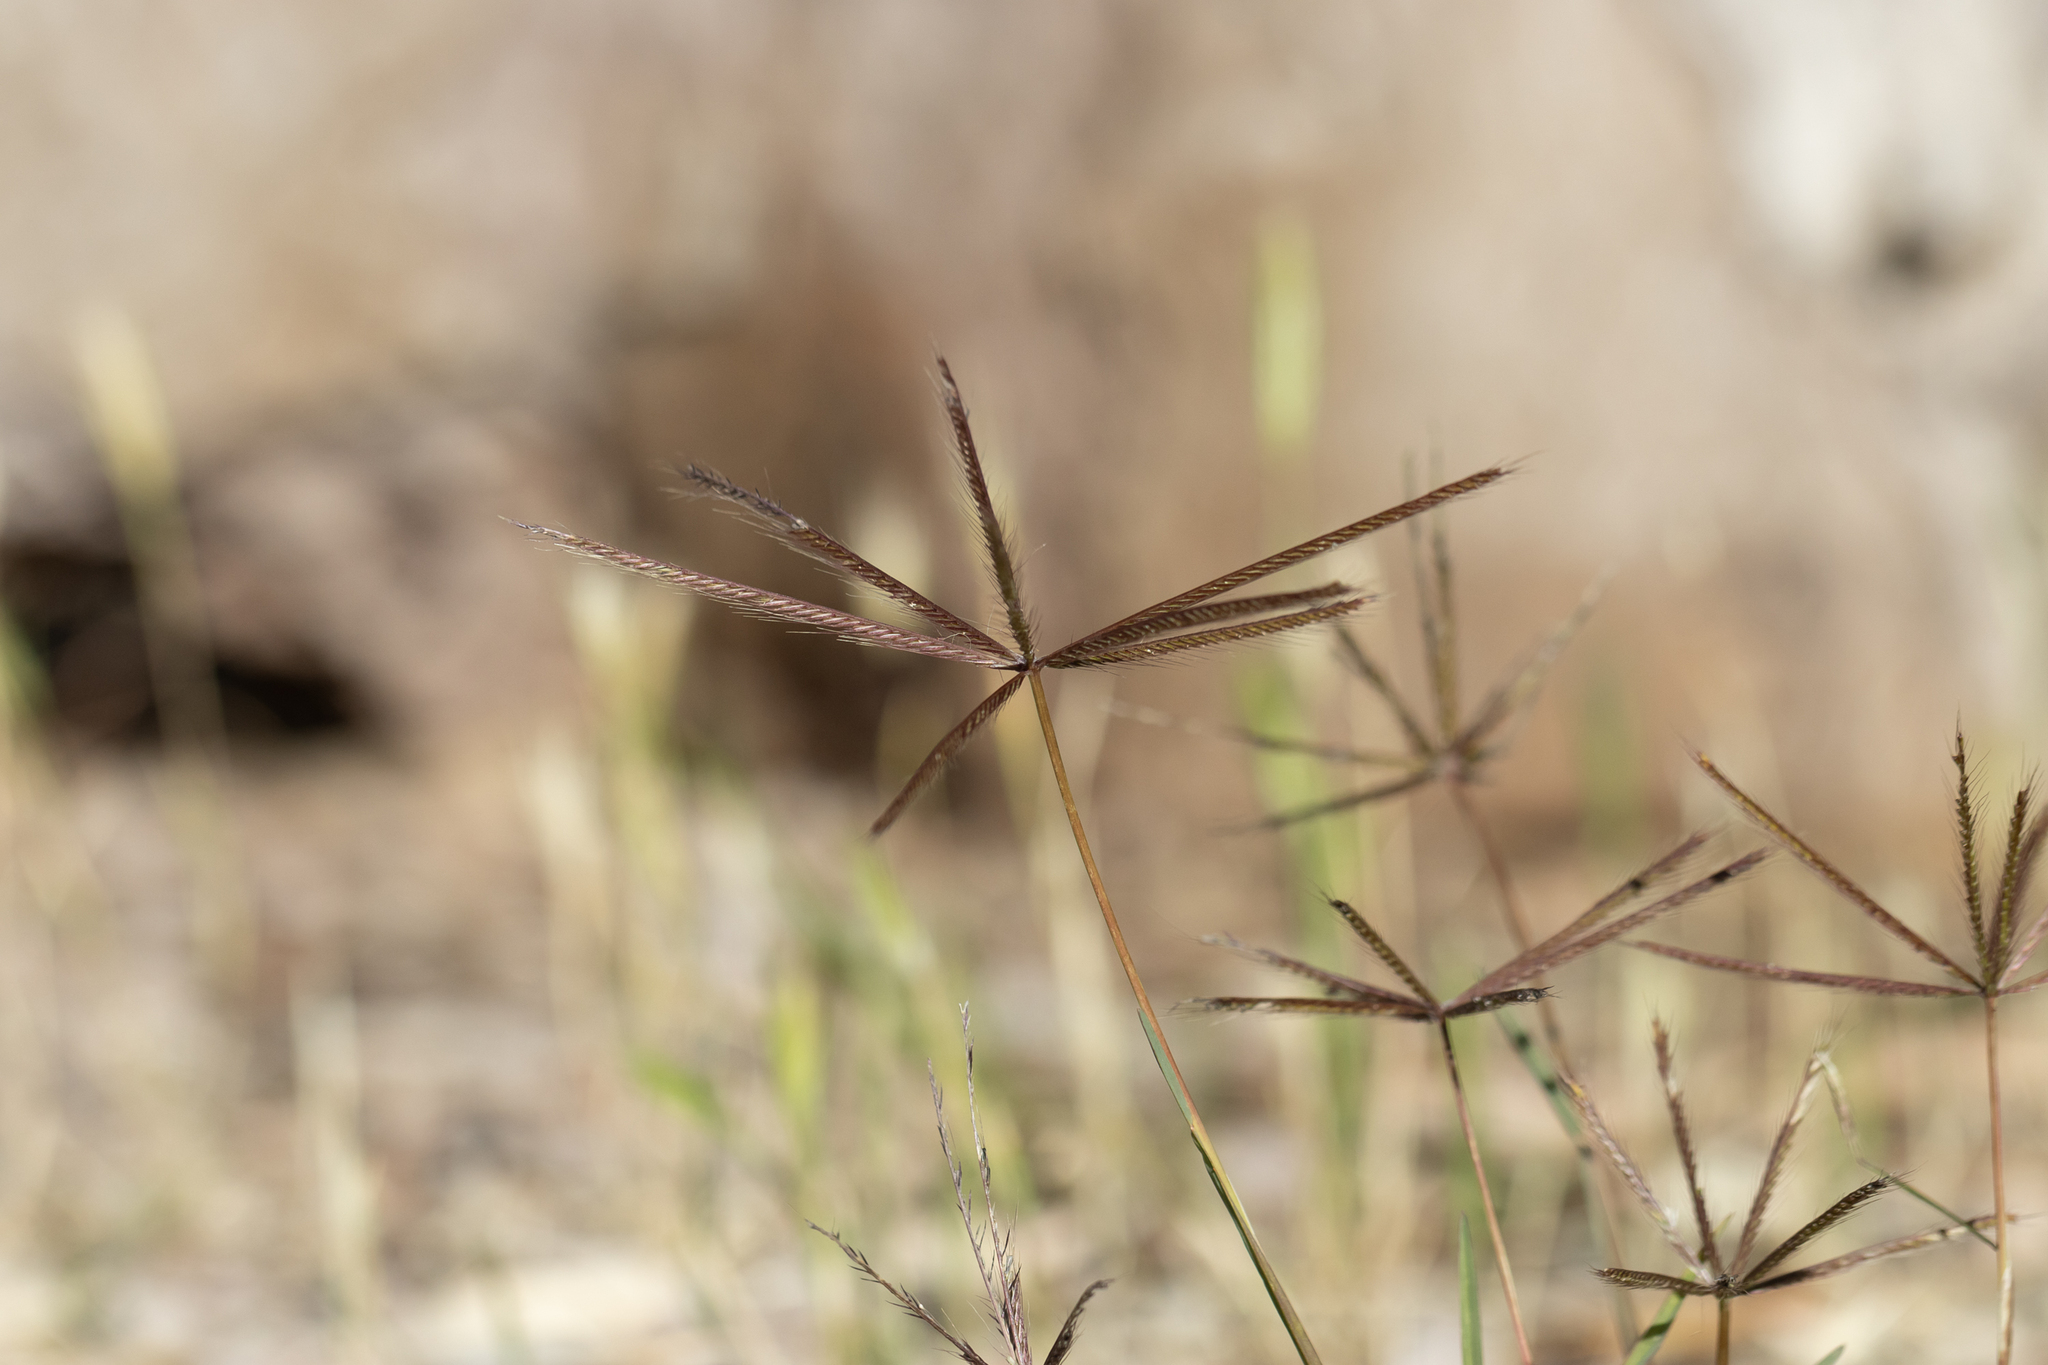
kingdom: Plantae
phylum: Tracheophyta
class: Liliopsida
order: Poales
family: Poaceae
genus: Chloris
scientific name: Chloris truncata
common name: Windmill-grass
